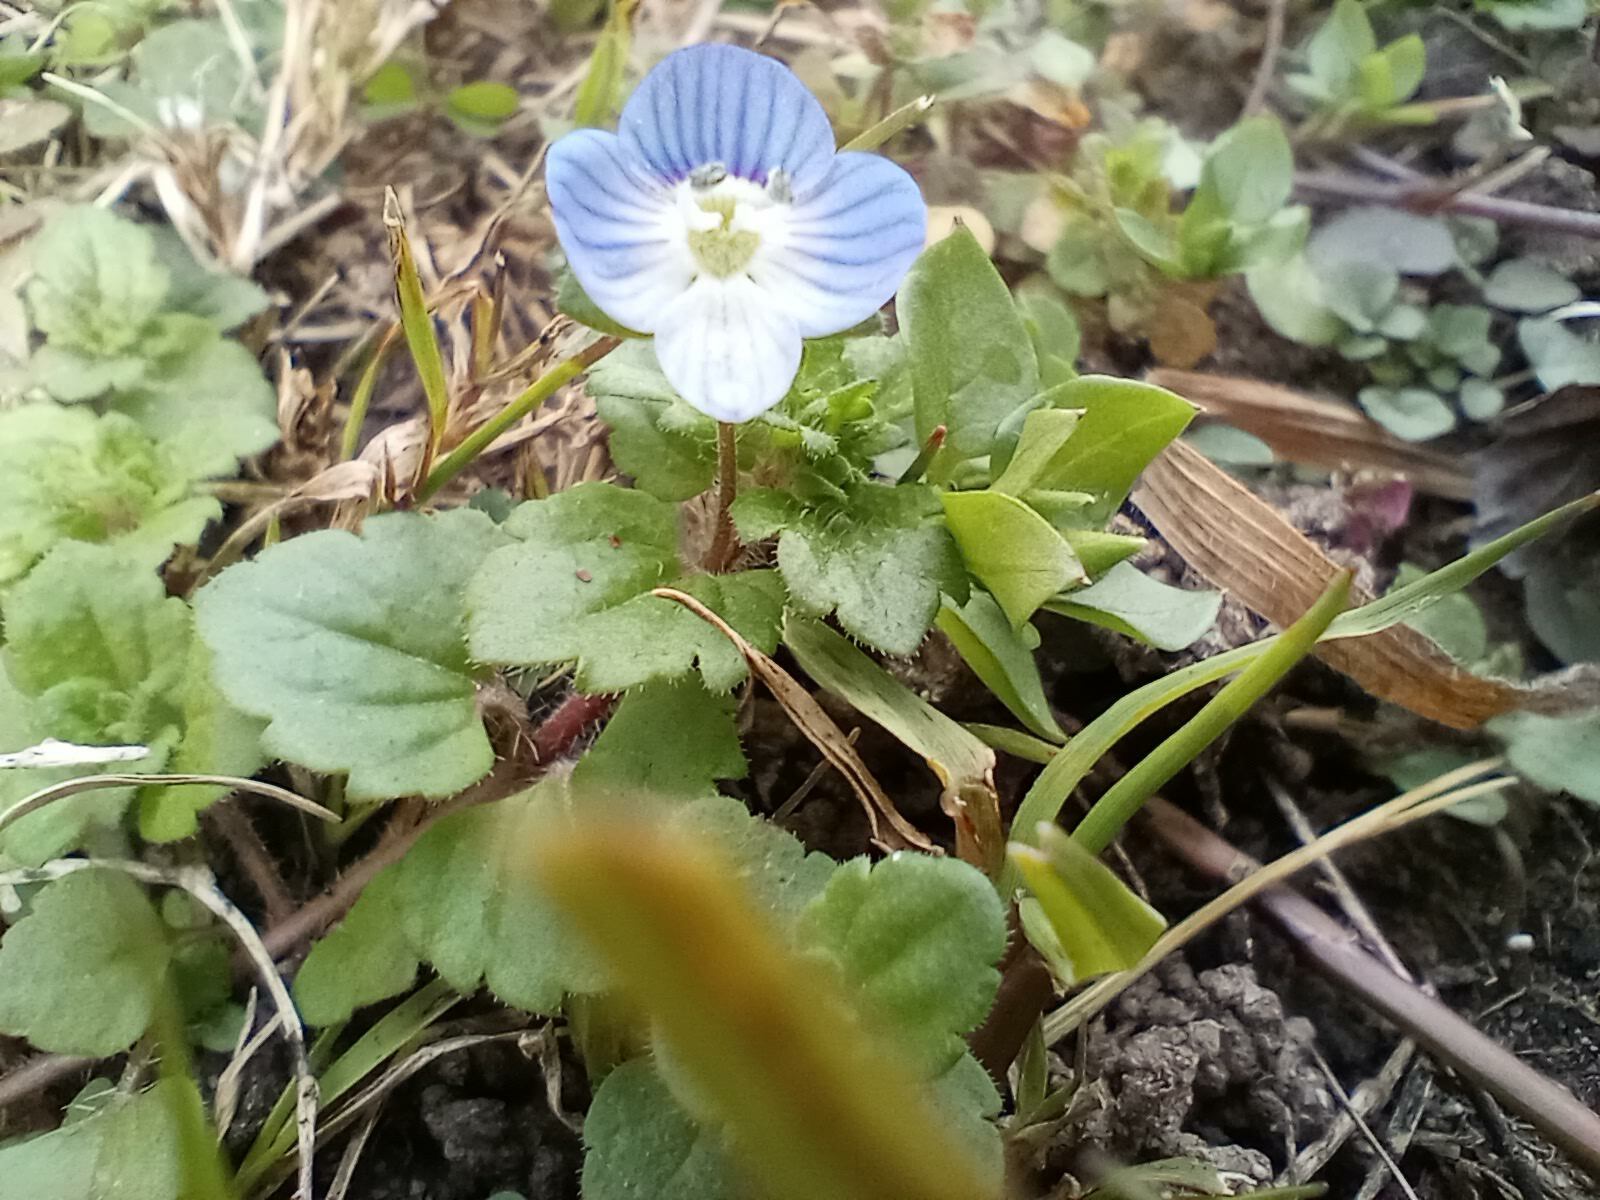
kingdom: Plantae
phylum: Tracheophyta
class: Magnoliopsida
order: Lamiales
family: Plantaginaceae
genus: Veronica
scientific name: Veronica persica
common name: Common field-speedwell
